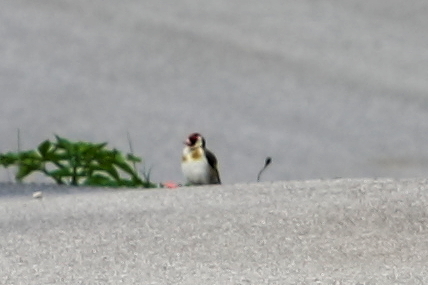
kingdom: Animalia
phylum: Chordata
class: Aves
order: Passeriformes
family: Fringillidae
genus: Carduelis
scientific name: Carduelis carduelis
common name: European goldfinch
